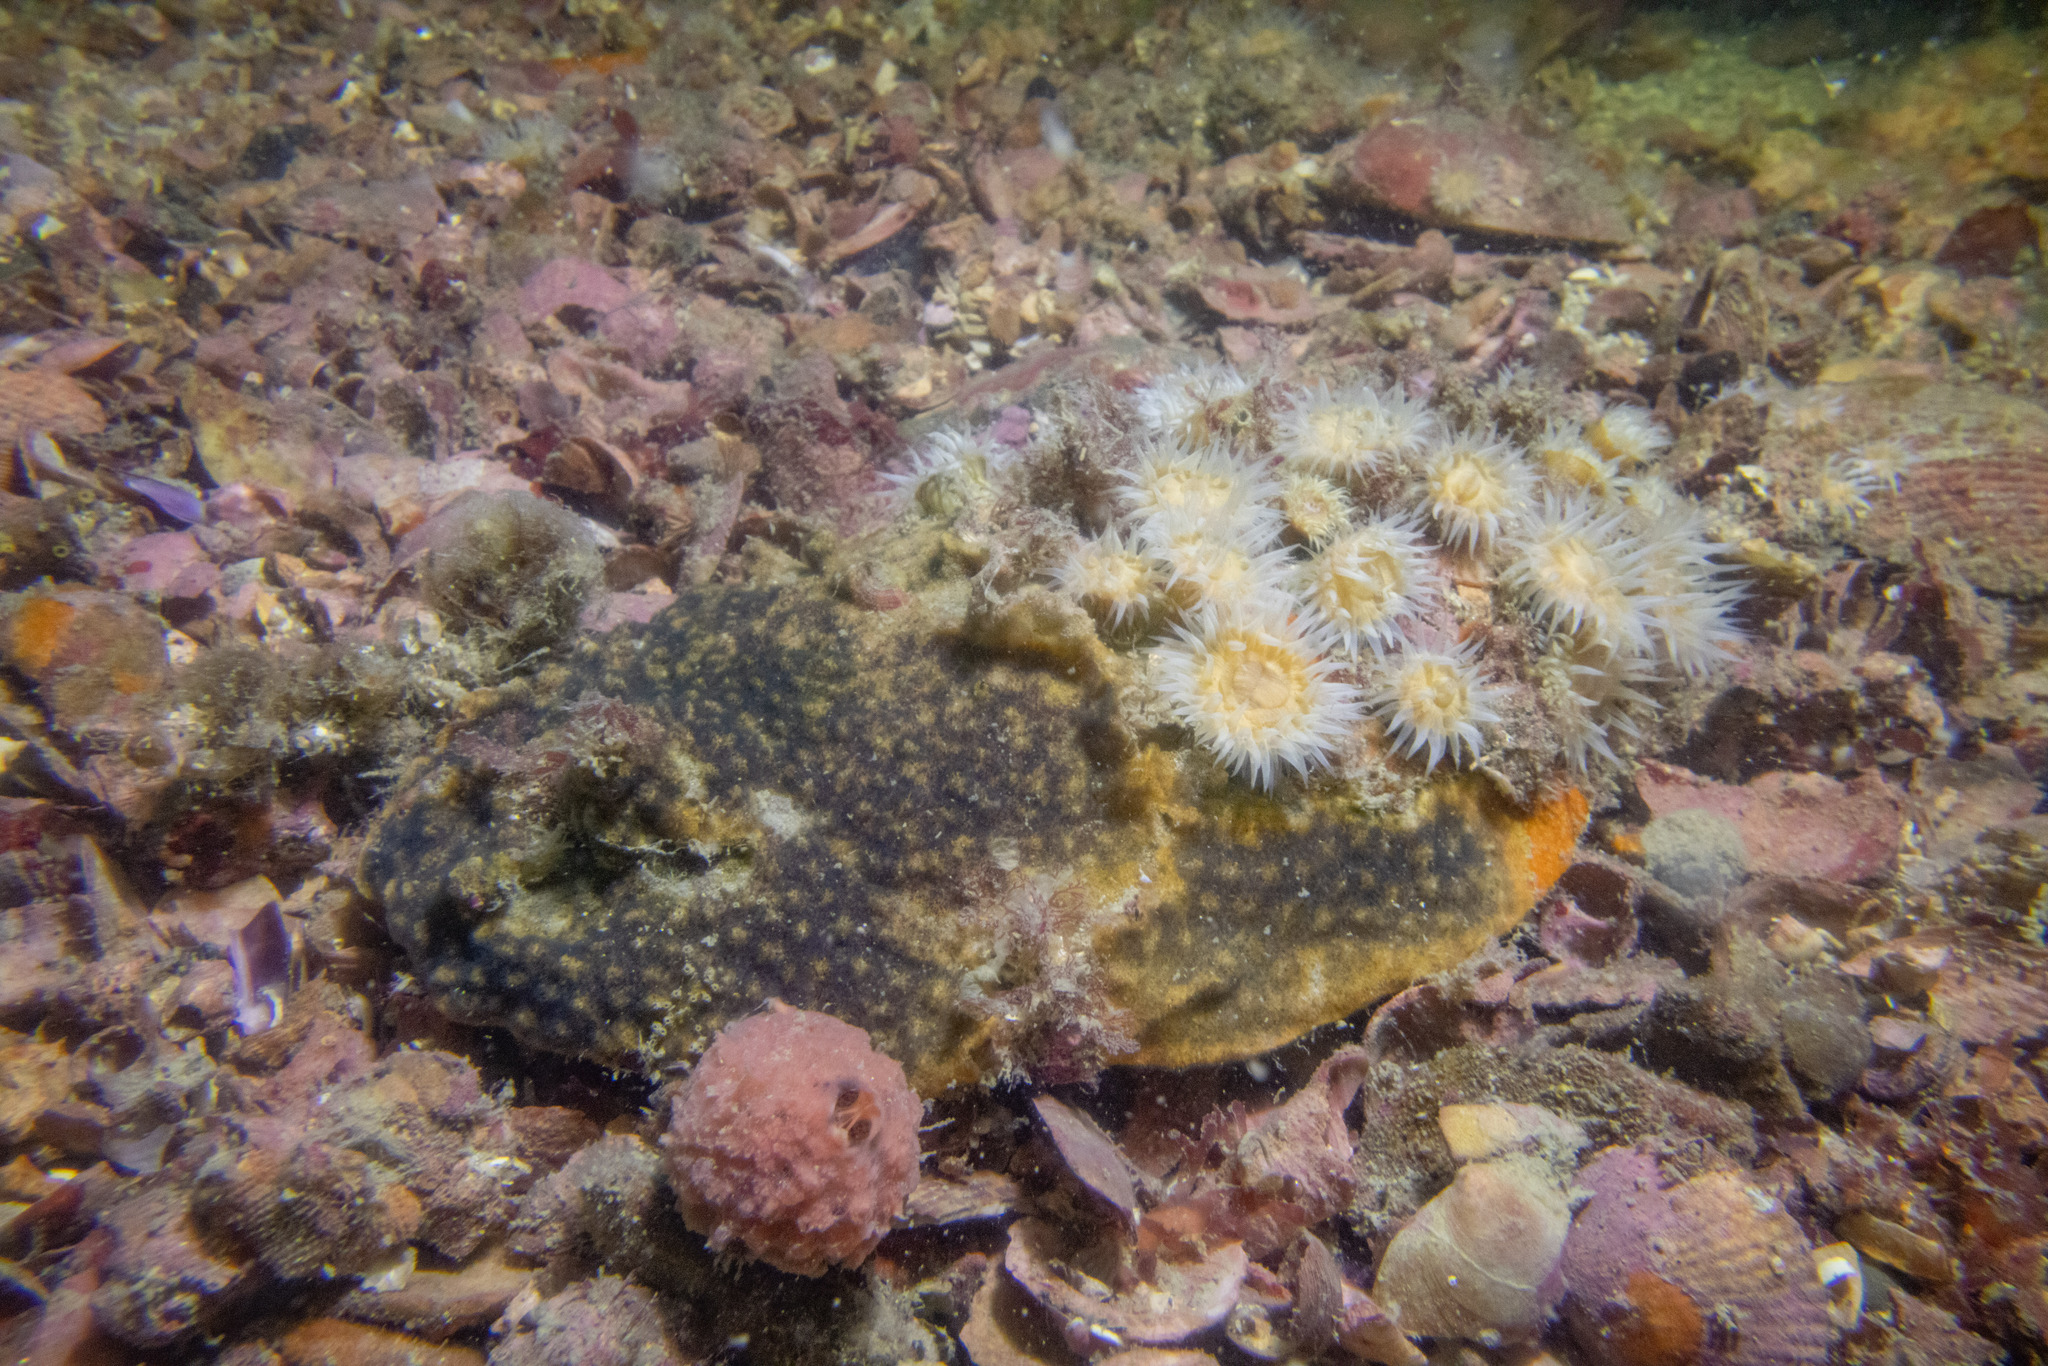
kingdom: Animalia
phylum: Bryozoa
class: Gymnolaemata
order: Cheilostomatida
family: Celleporidae
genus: Celleporaria
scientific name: Celleporaria nodulosa
